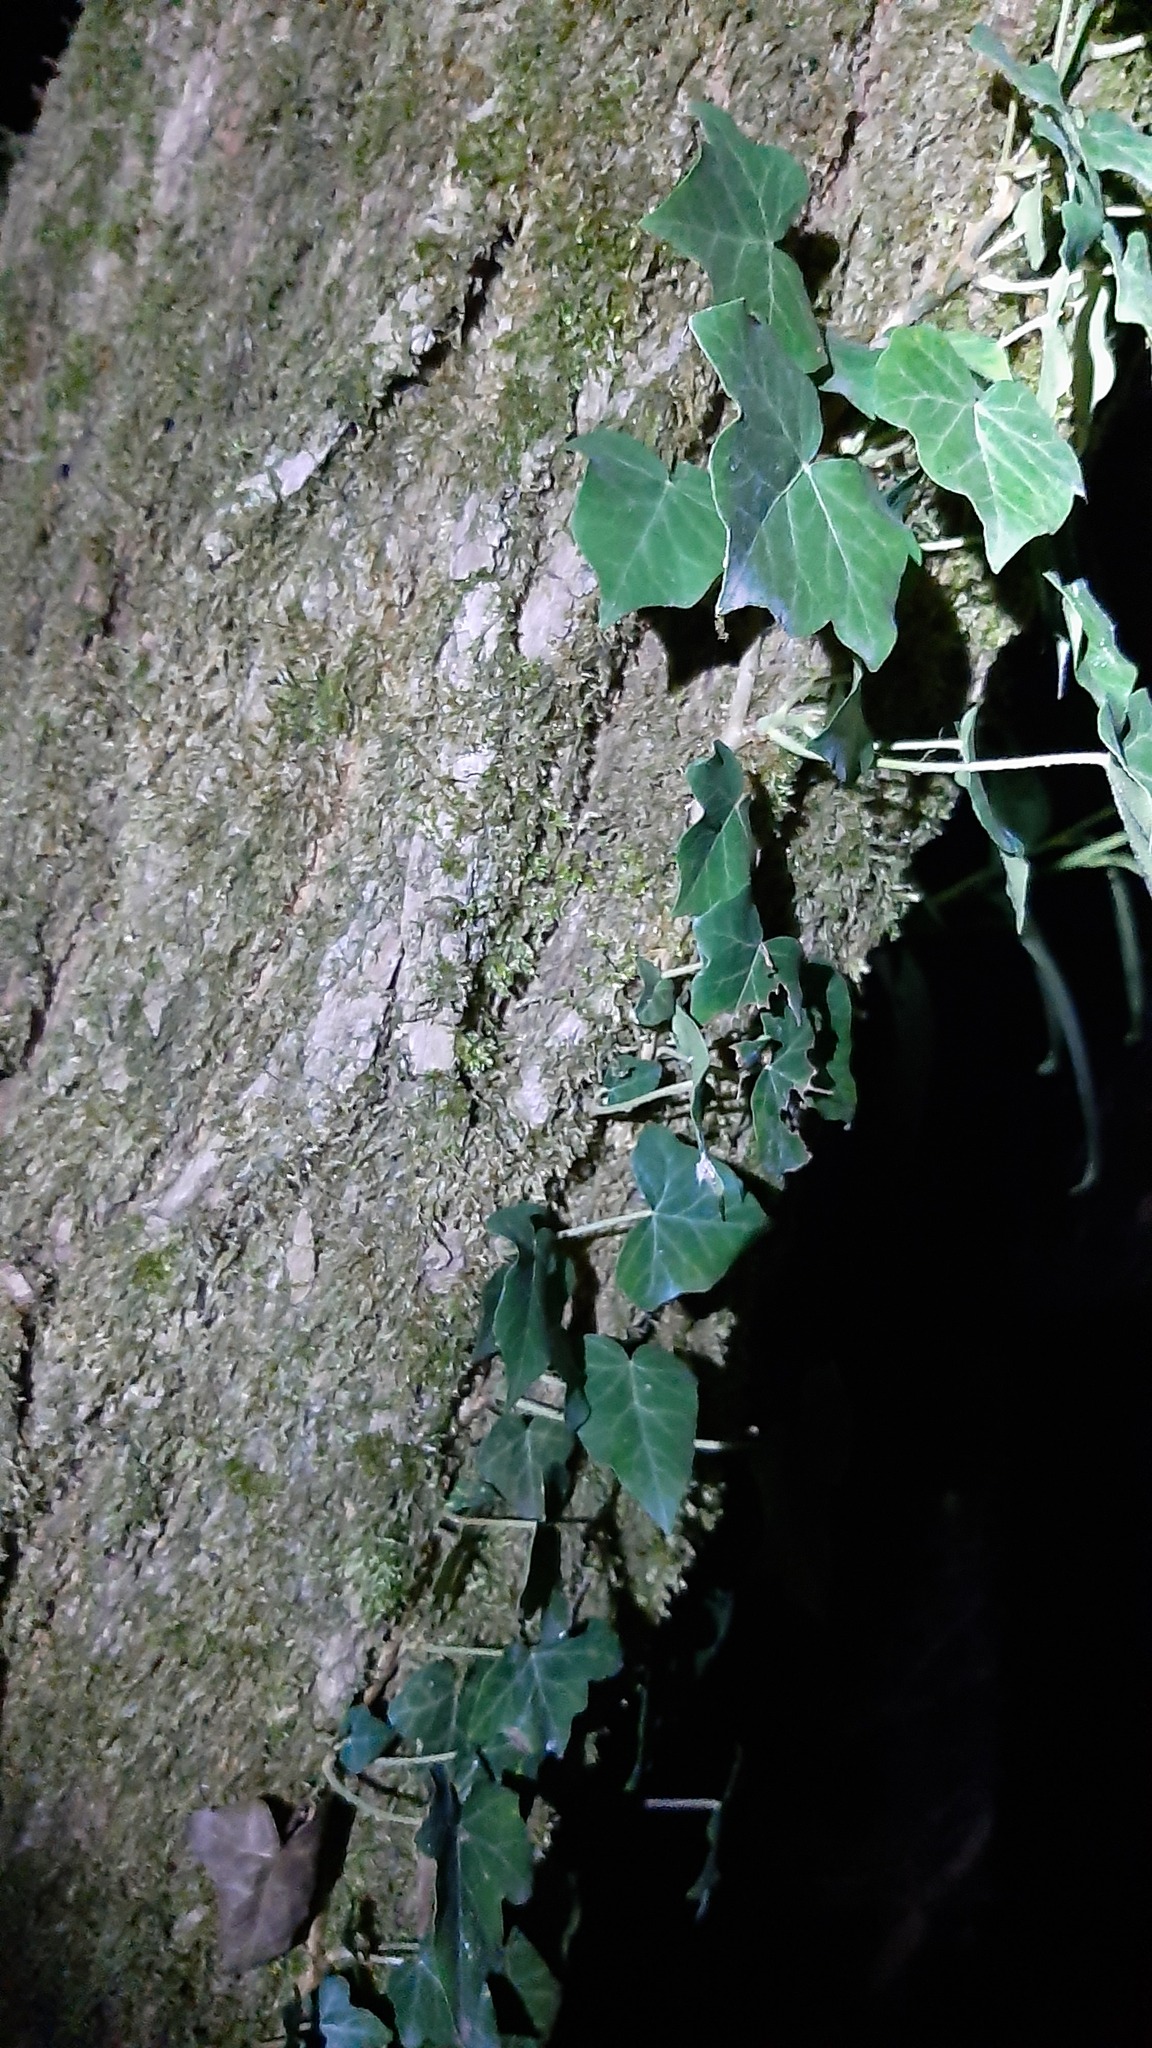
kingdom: Plantae
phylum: Tracheophyta
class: Magnoliopsida
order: Apiales
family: Araliaceae
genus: Hedera
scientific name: Hedera helix
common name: Ivy
